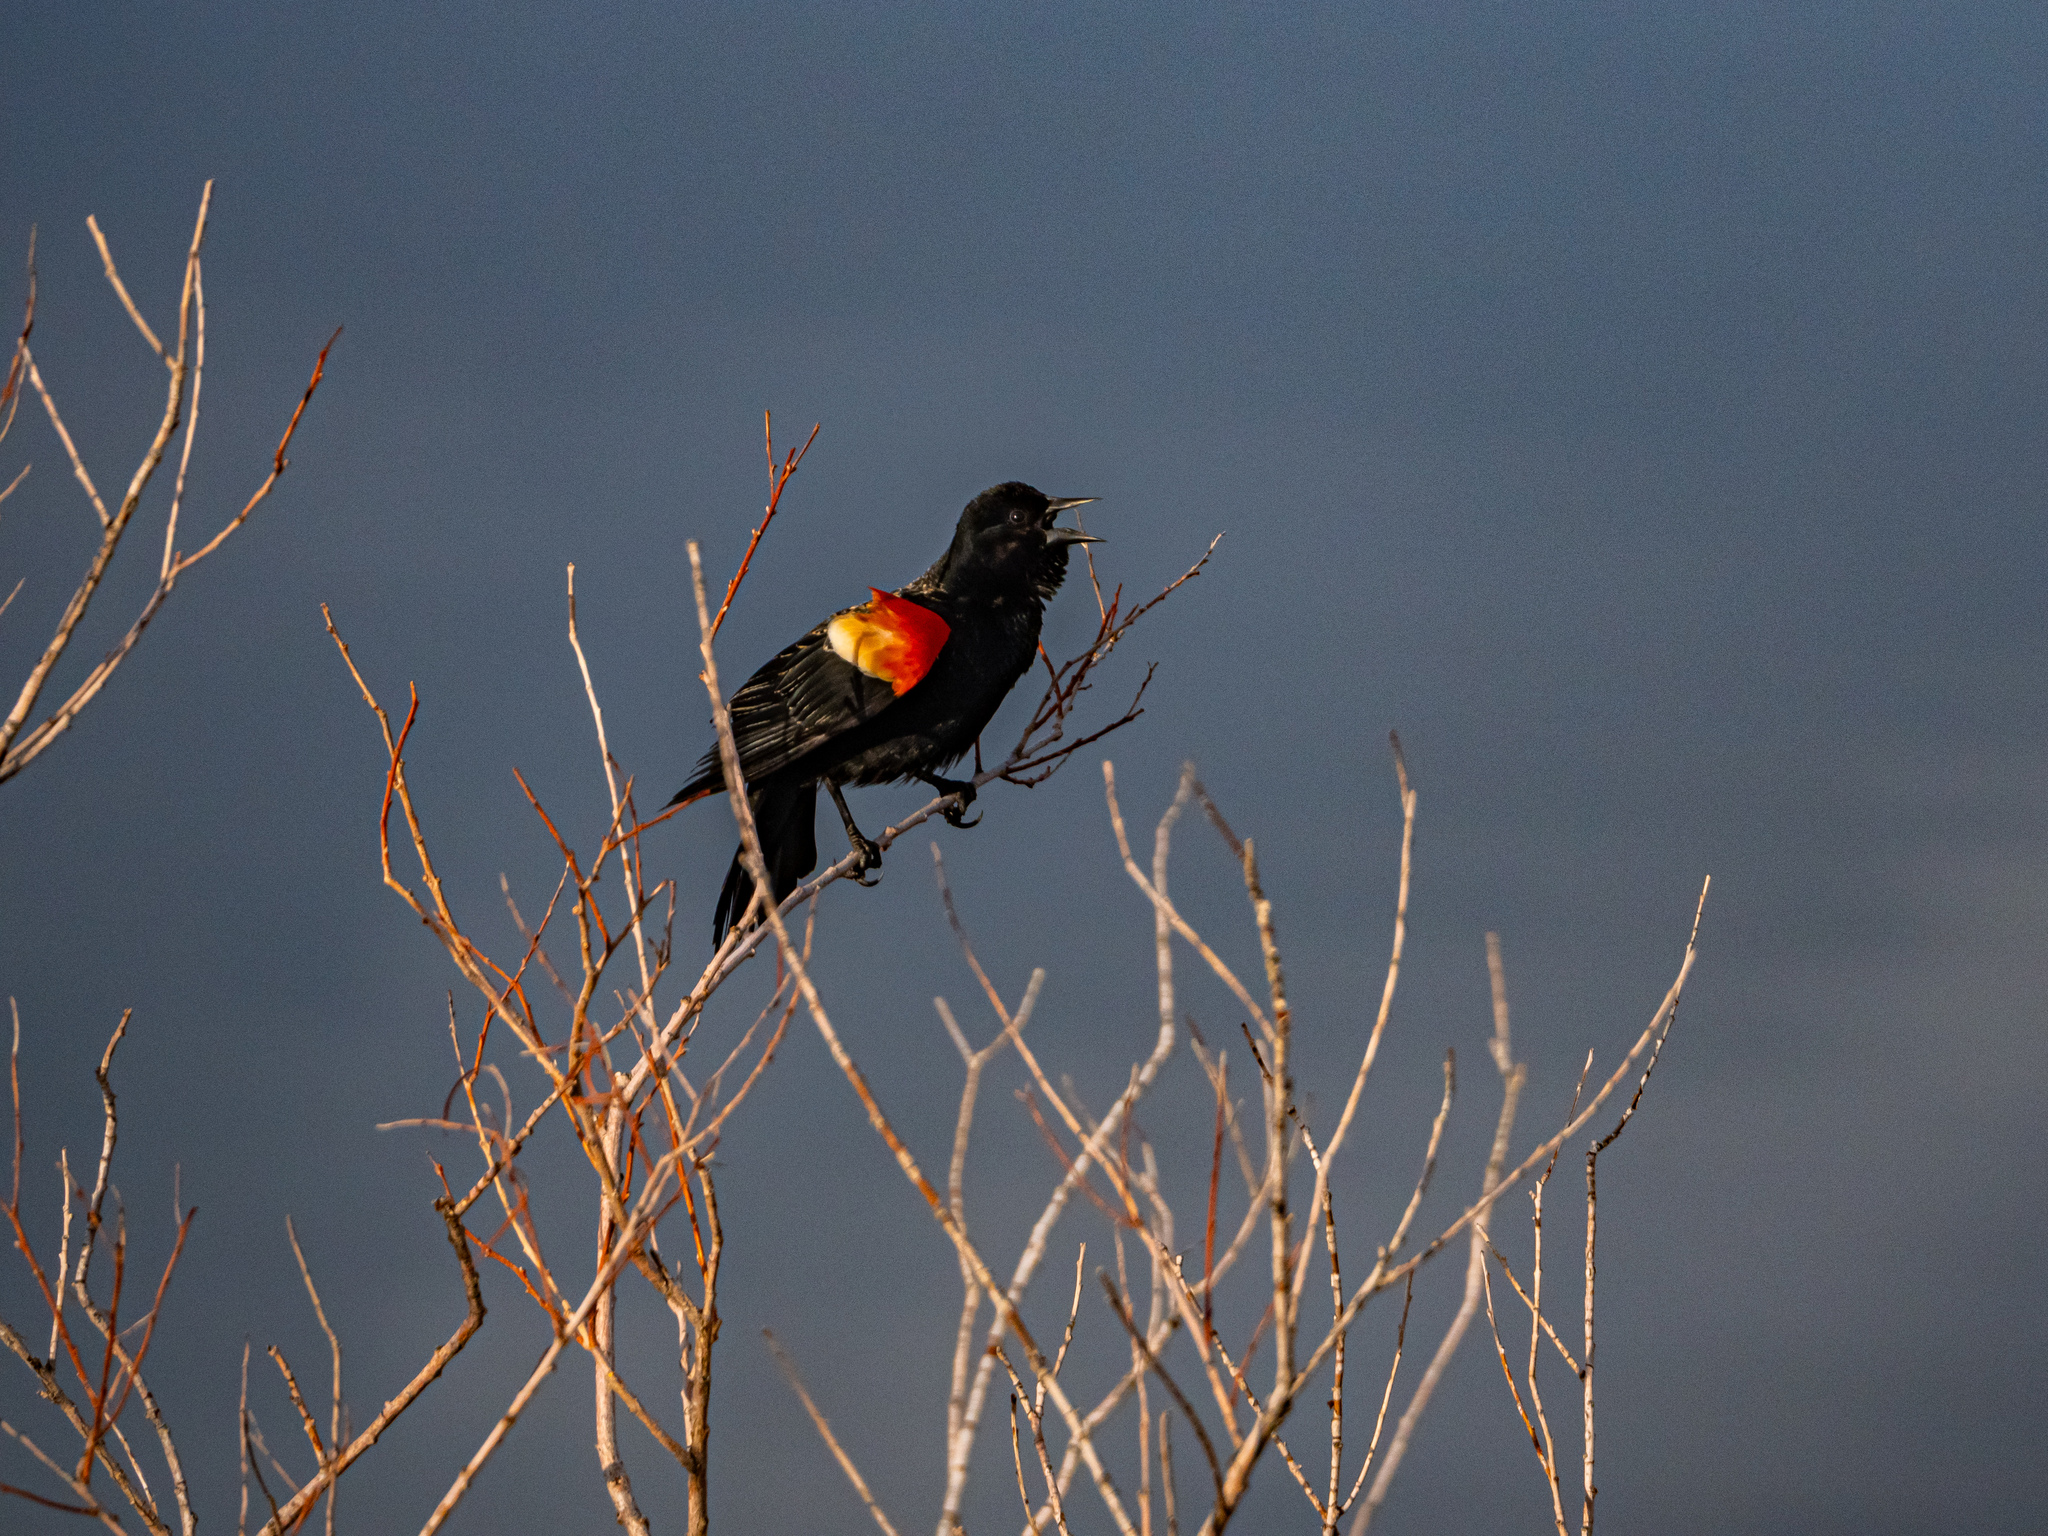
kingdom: Animalia
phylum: Chordata
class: Aves
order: Passeriformes
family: Icteridae
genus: Agelaius
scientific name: Agelaius phoeniceus
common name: Red-winged blackbird
